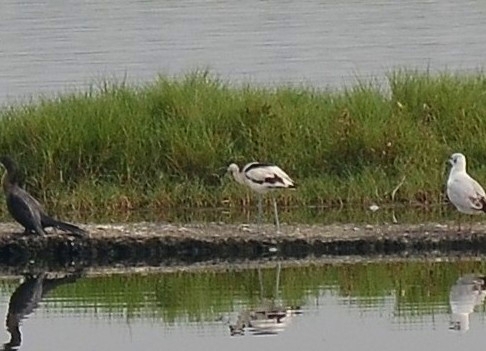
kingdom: Animalia
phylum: Chordata
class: Aves
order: Charadriiformes
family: Recurvirostridae
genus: Recurvirostra
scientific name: Recurvirostra avosetta
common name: Pied avocet
